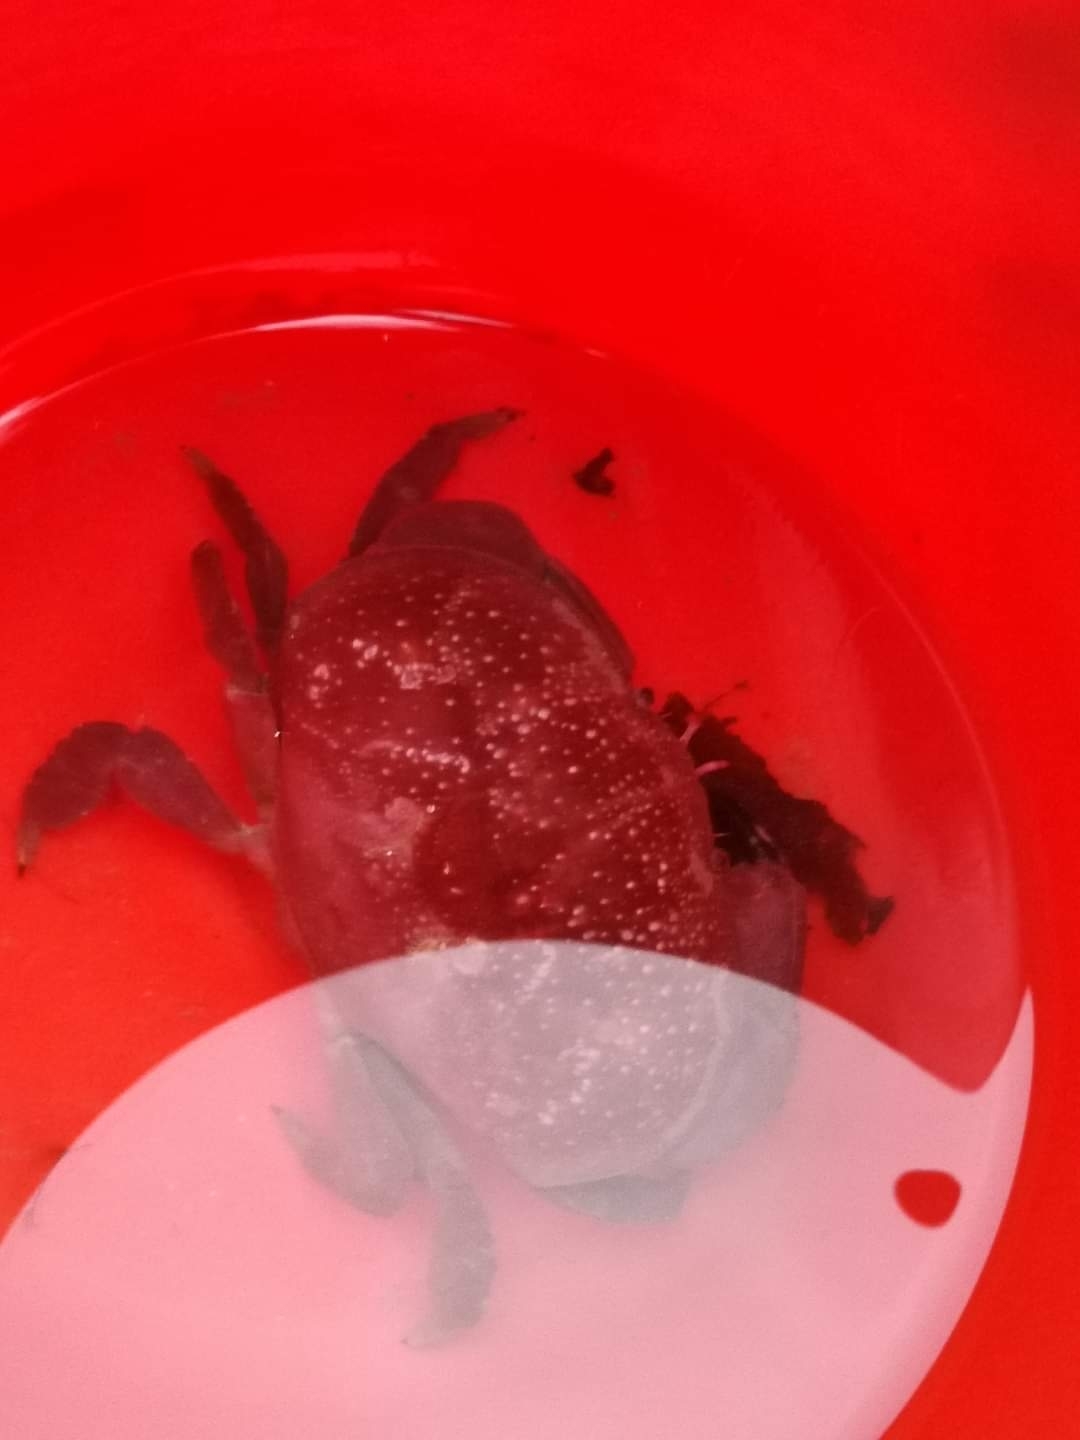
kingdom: Animalia
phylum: Arthropoda
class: Malacostraca
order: Decapoda
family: Xanthidae
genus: Atergatis
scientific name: Atergatis integerrimus
